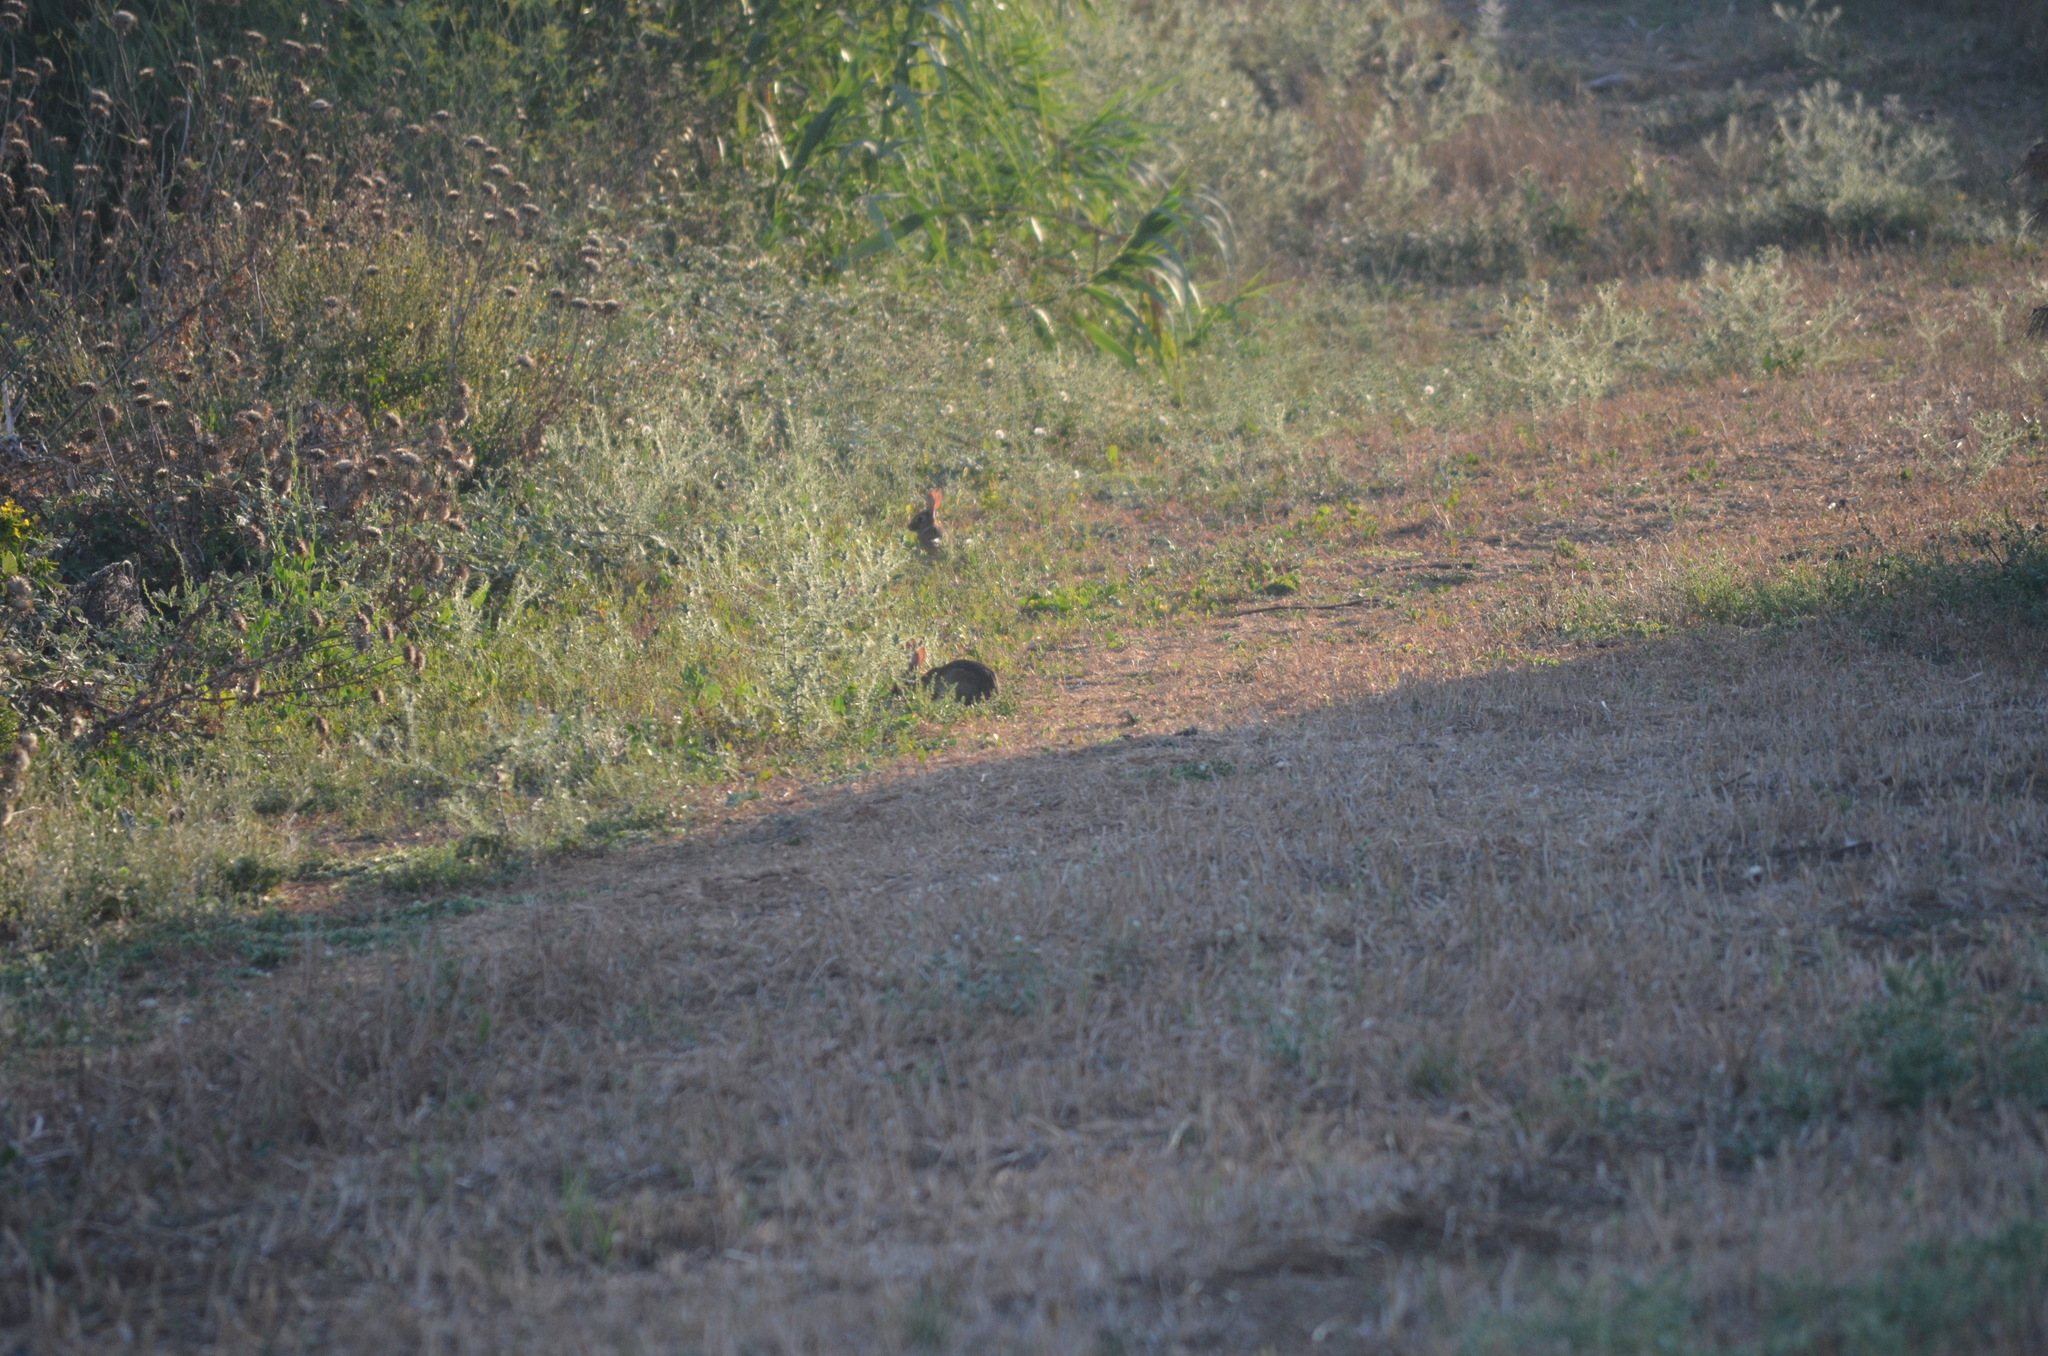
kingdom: Animalia
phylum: Chordata
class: Mammalia
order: Lagomorpha
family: Leporidae
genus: Oryctolagus
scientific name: Oryctolagus cuniculus
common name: European rabbit
